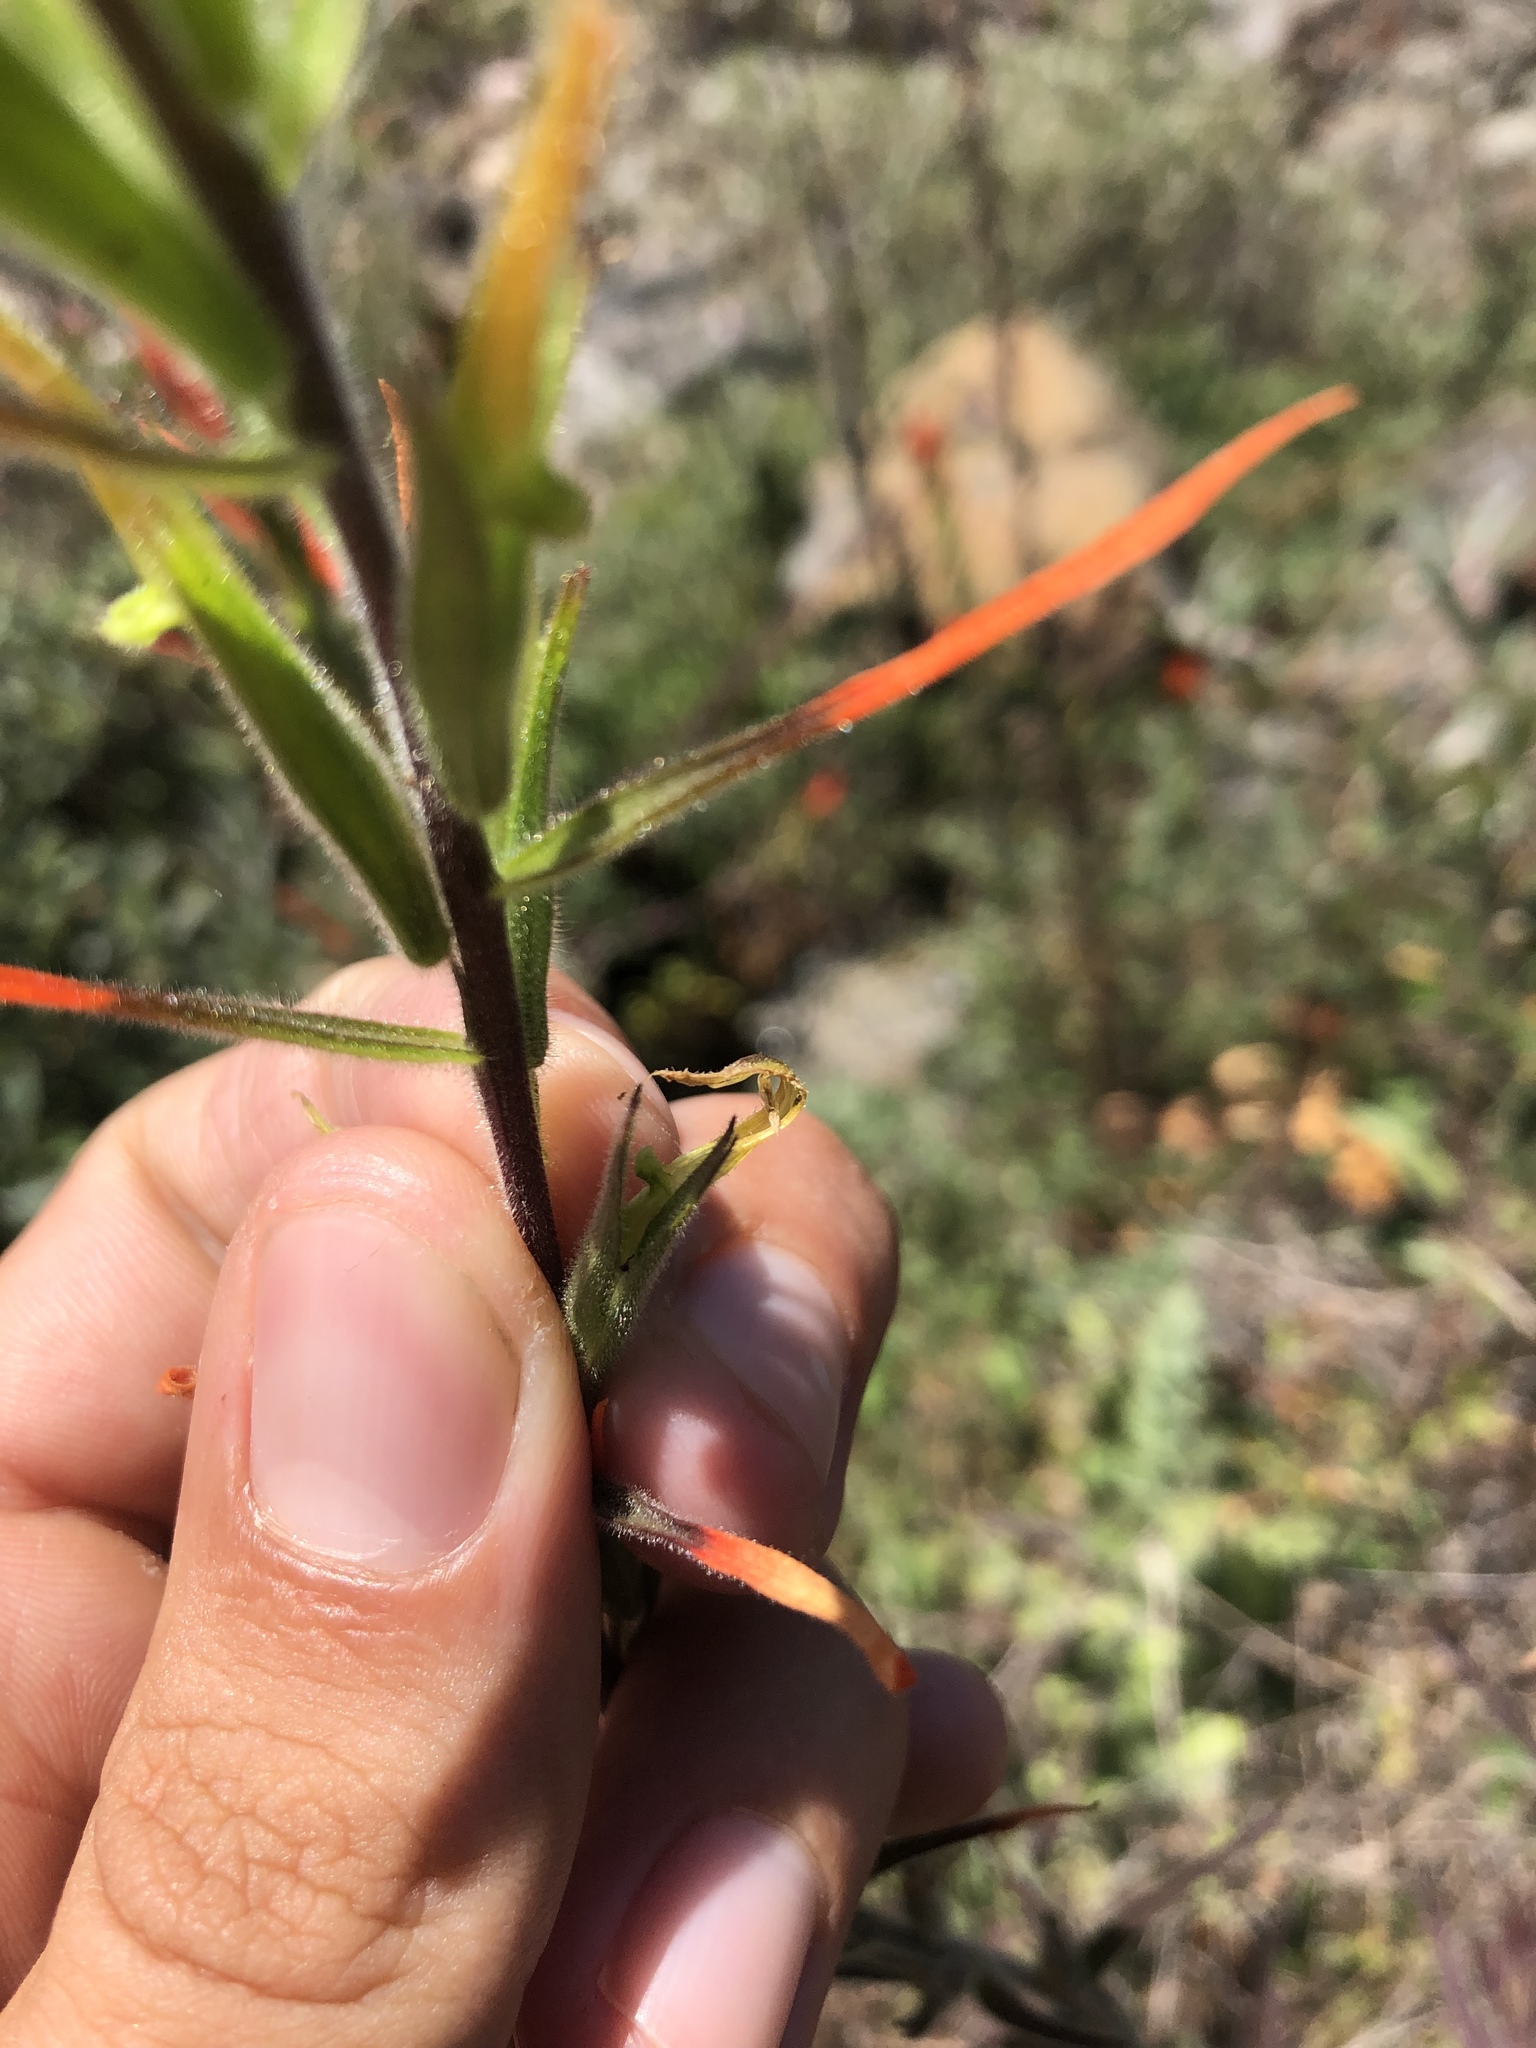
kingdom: Plantae
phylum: Tracheophyta
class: Magnoliopsida
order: Lamiales
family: Orobanchaceae
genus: Castilleja
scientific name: Castilleja minor
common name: Seep paintbrush
